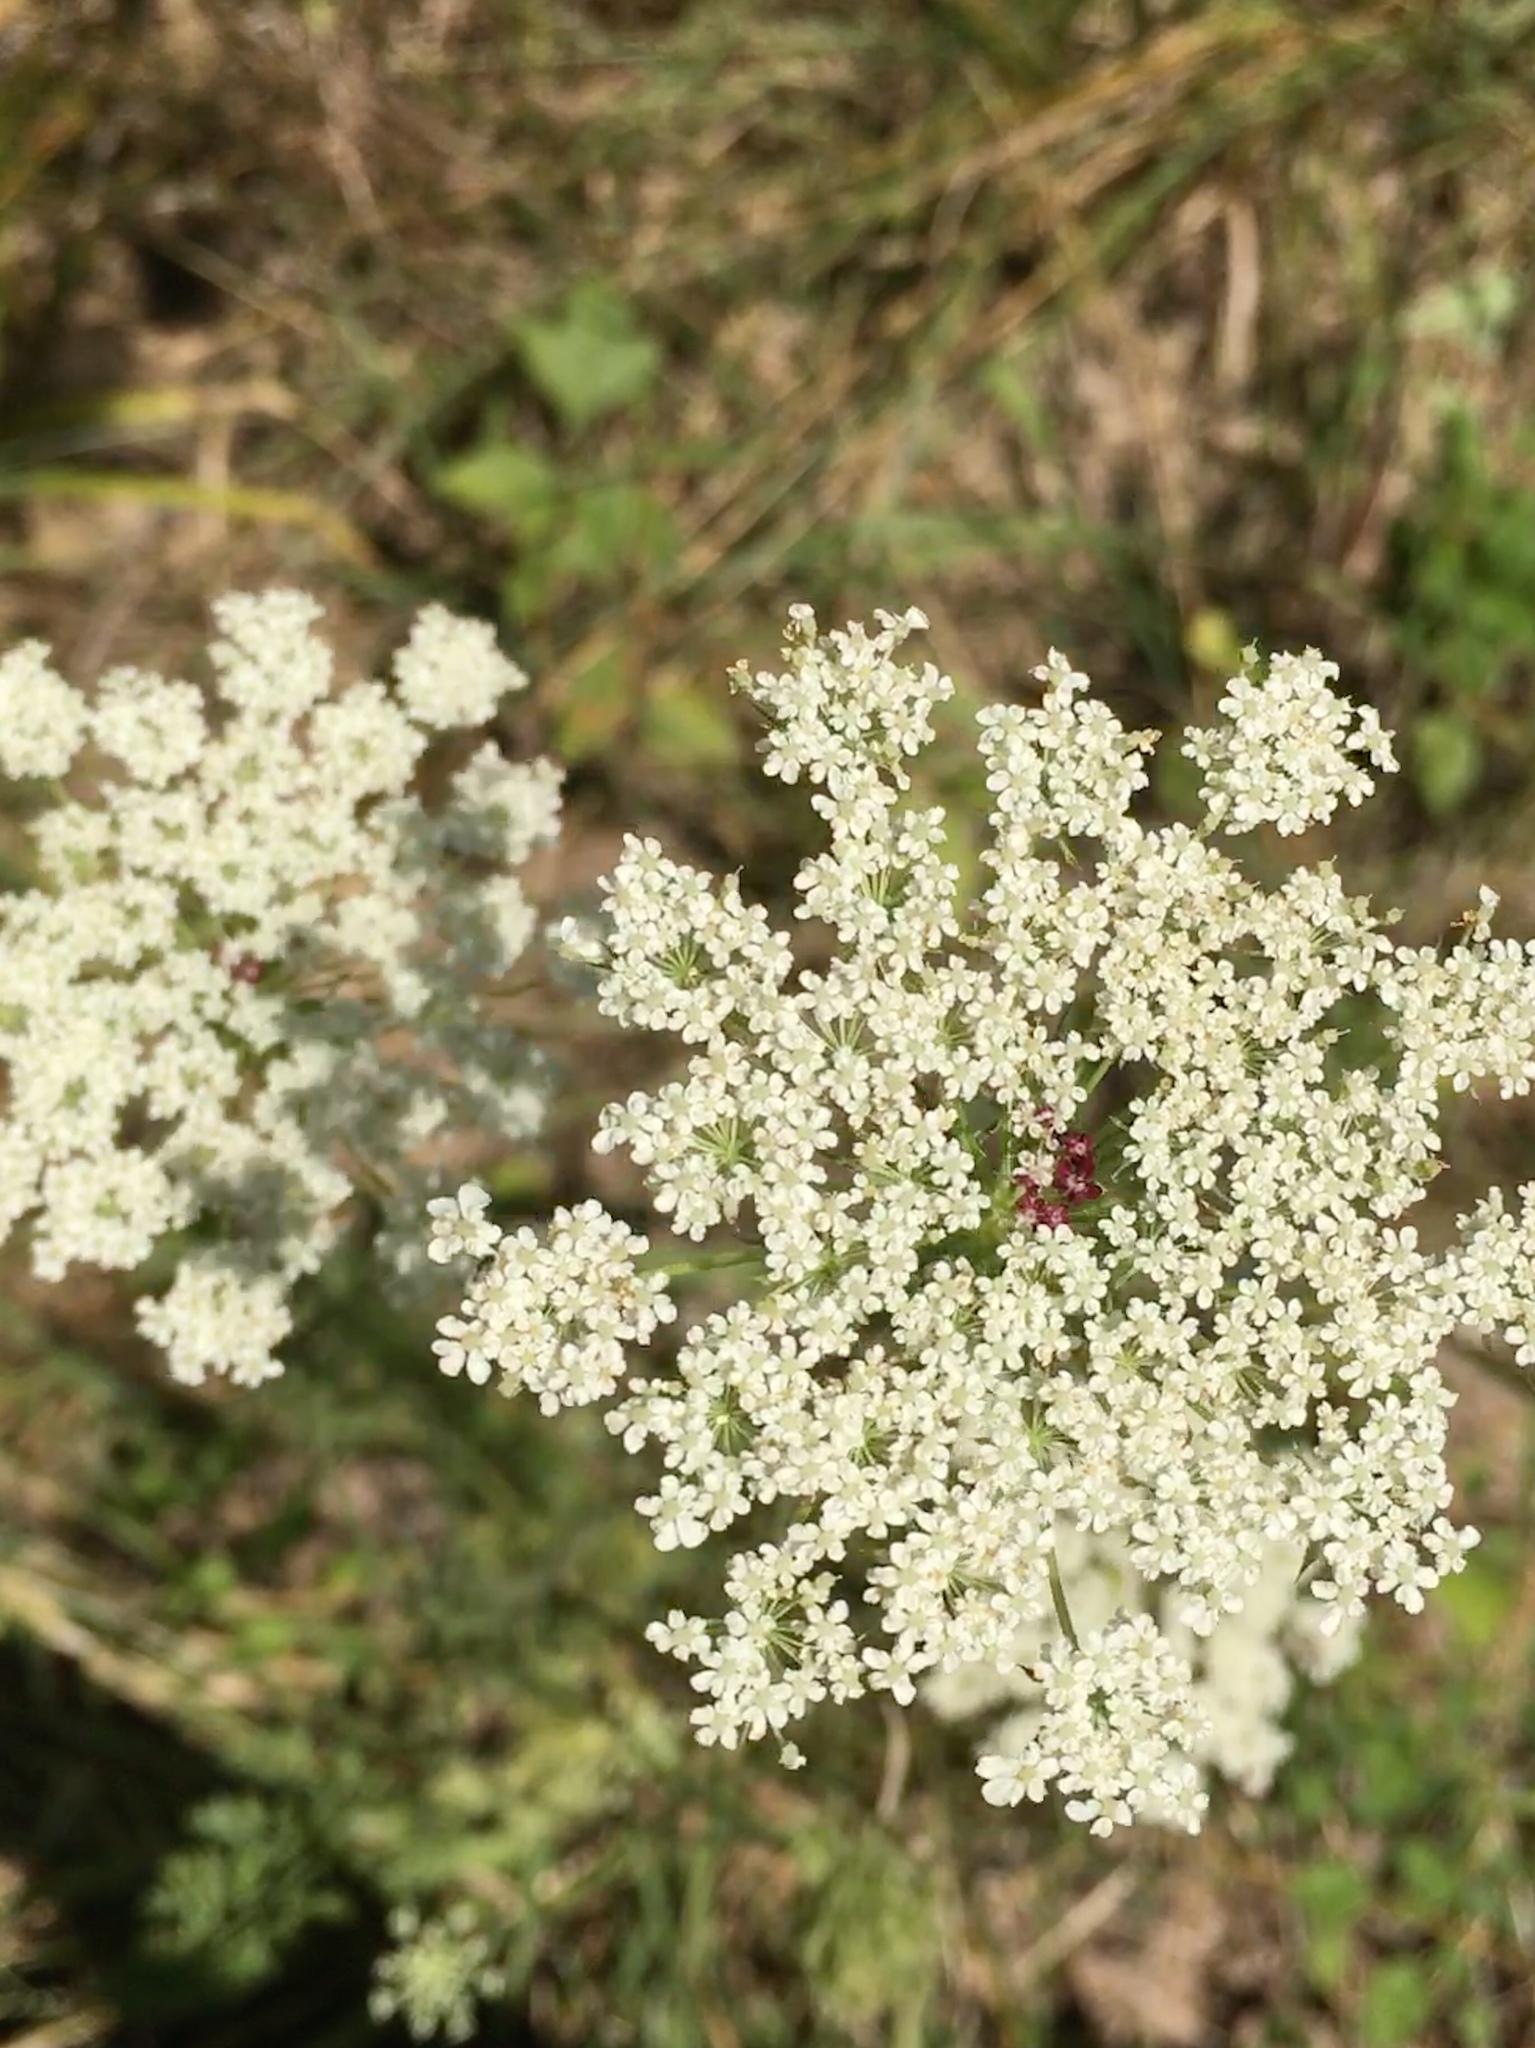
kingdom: Plantae
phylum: Tracheophyta
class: Magnoliopsida
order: Apiales
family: Apiaceae
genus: Daucus
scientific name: Daucus carota
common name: Wild carrot
